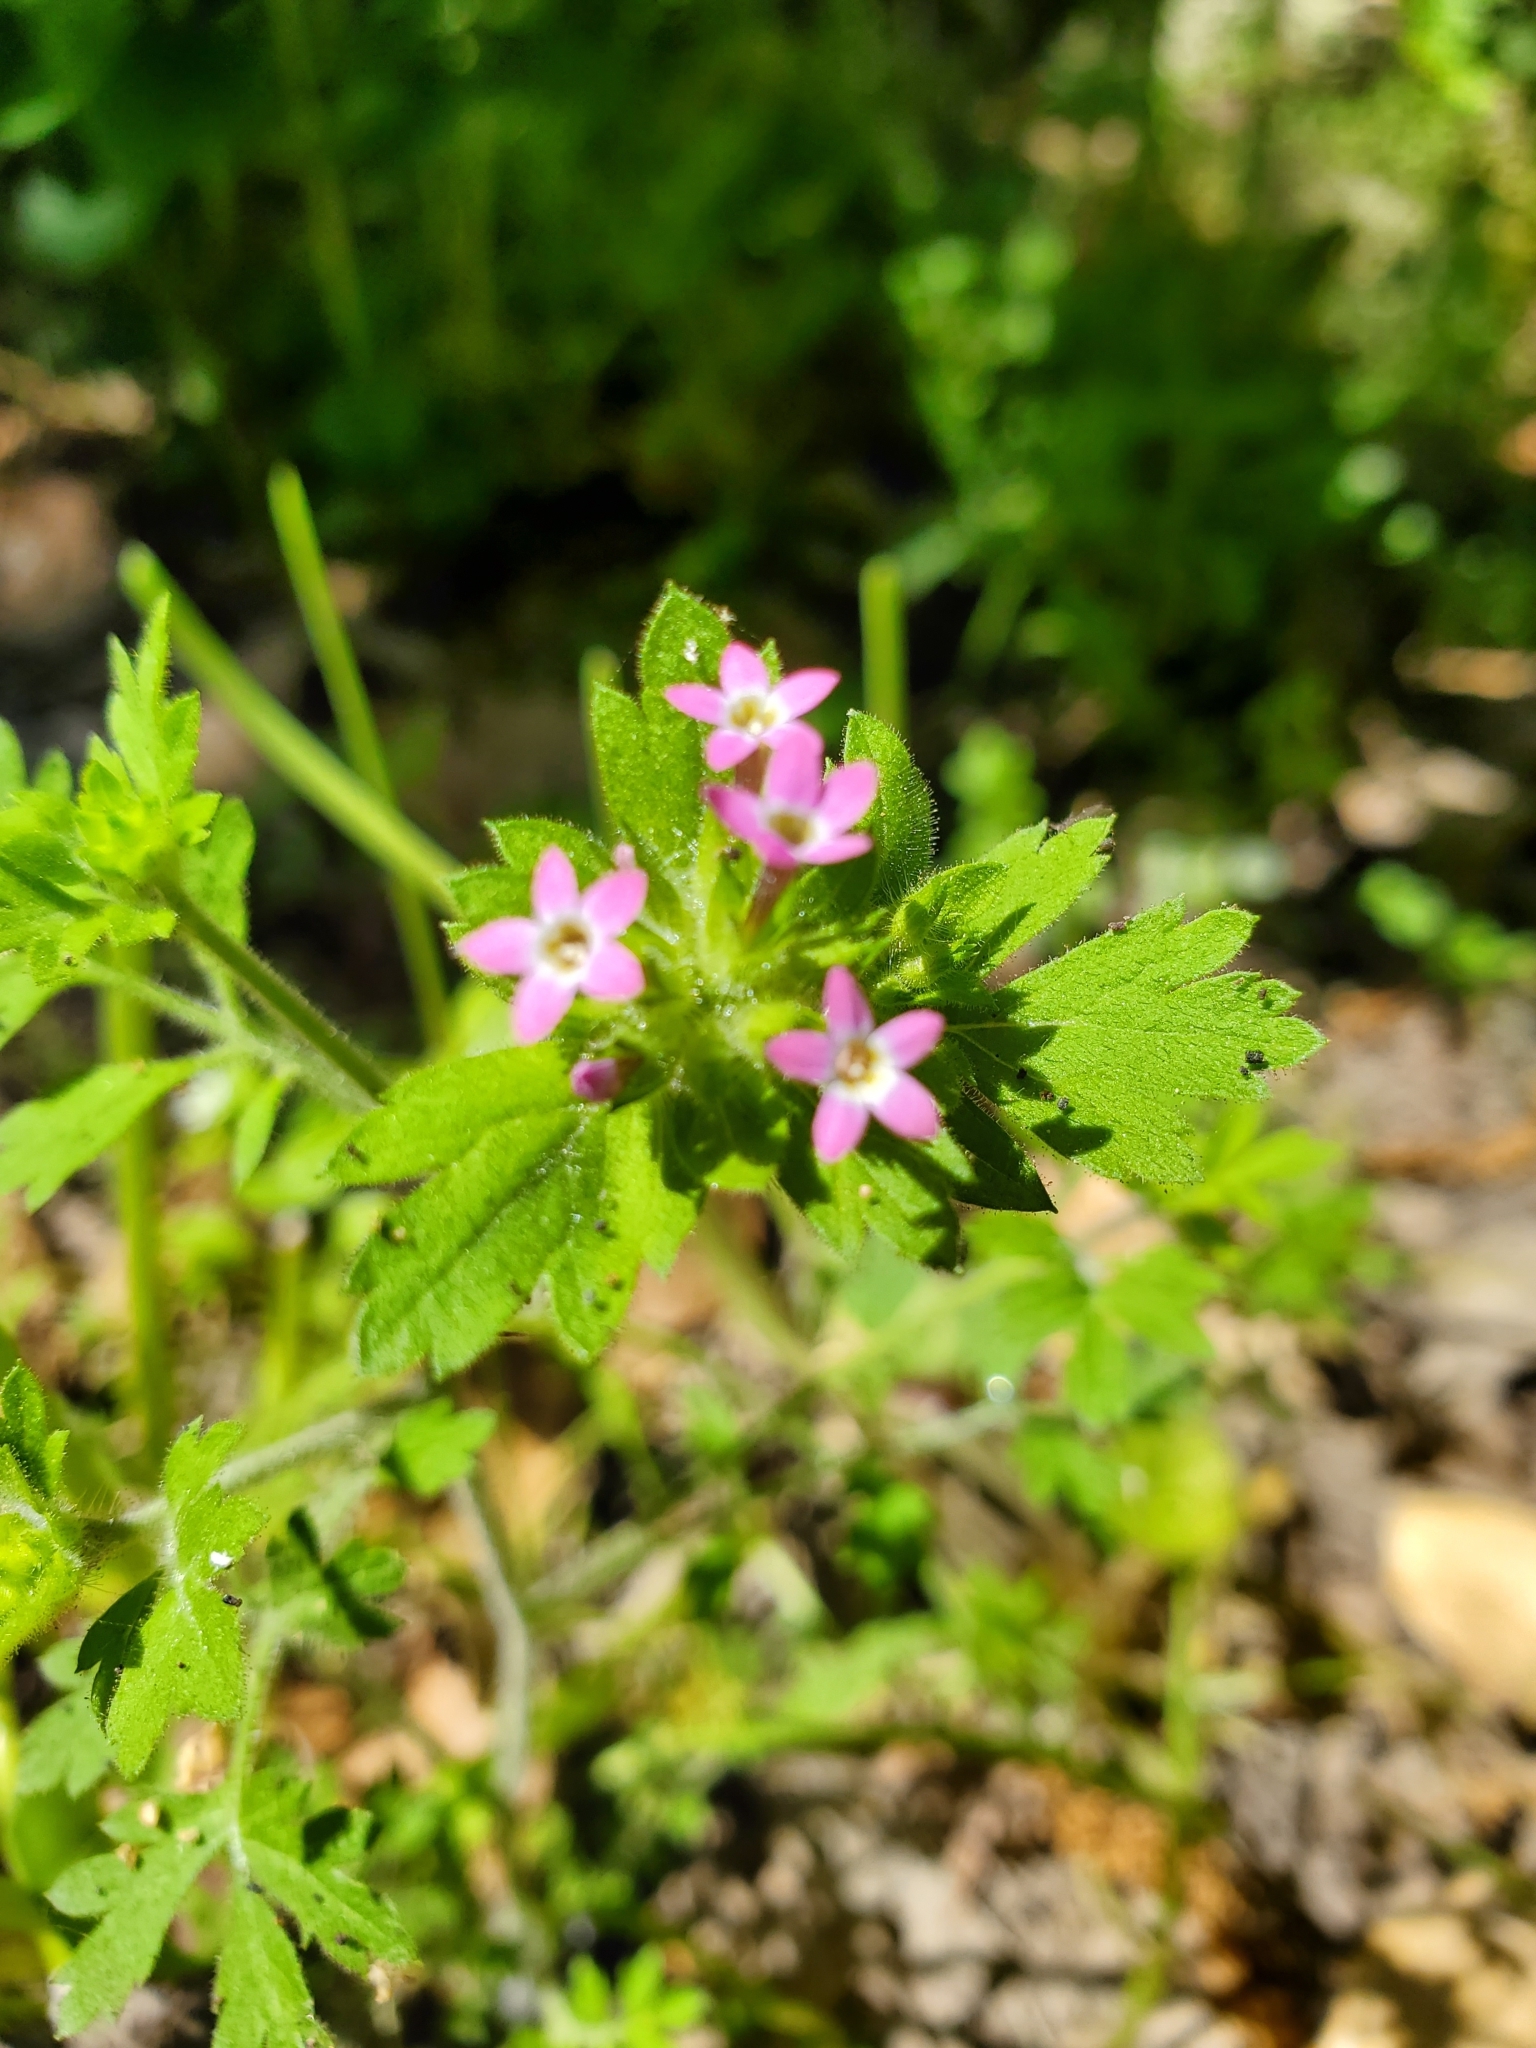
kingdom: Plantae
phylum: Tracheophyta
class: Magnoliopsida
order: Ericales
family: Polemoniaceae
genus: Collomia
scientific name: Collomia heterophylla
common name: Variable-leaved collomia
